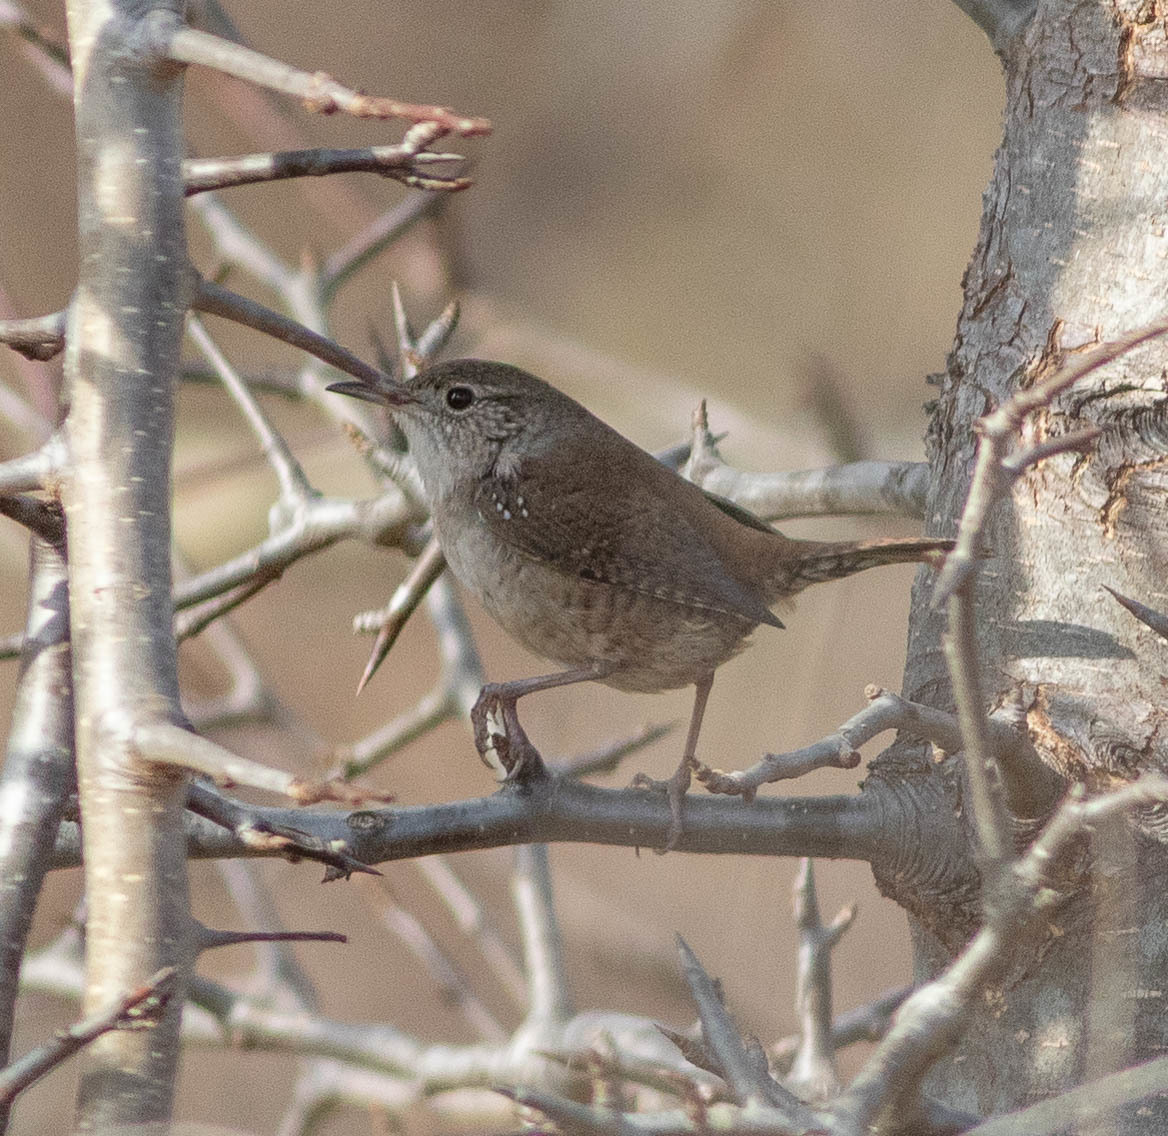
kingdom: Animalia
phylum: Chordata
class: Aves
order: Passeriformes
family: Troglodytidae
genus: Troglodytes
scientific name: Troglodytes aedon
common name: House wren
